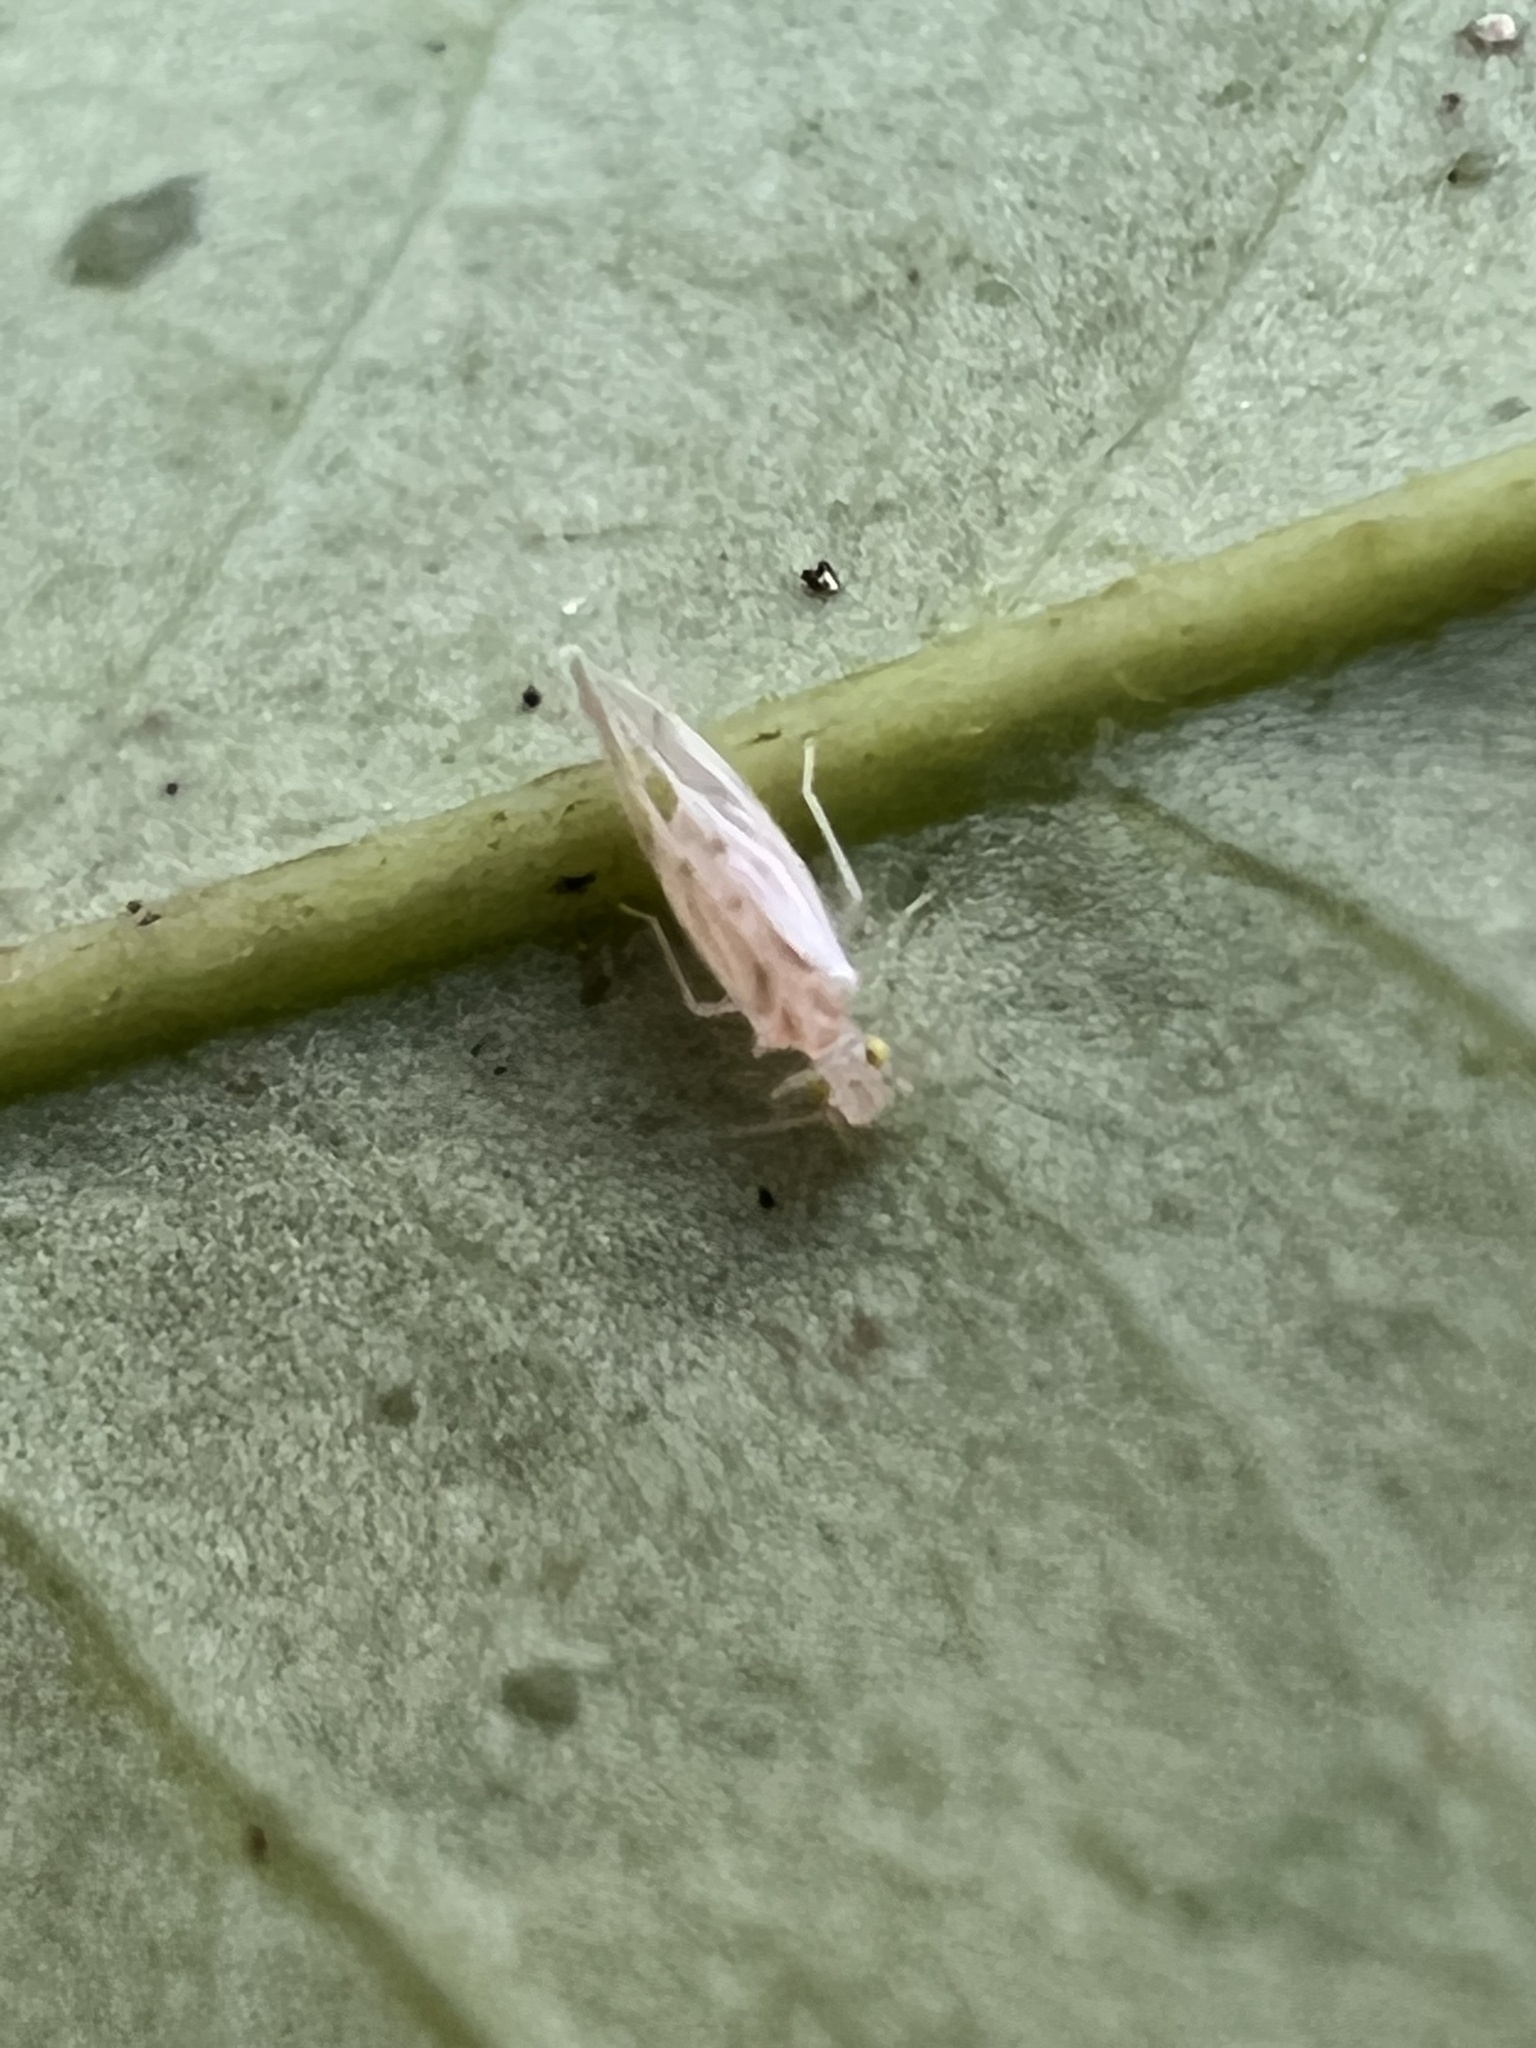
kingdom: Animalia
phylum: Arthropoda
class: Insecta
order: Psocodea
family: Paracaeciliidae
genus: Xanthocaecilius
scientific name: Xanthocaecilius sommermanae
